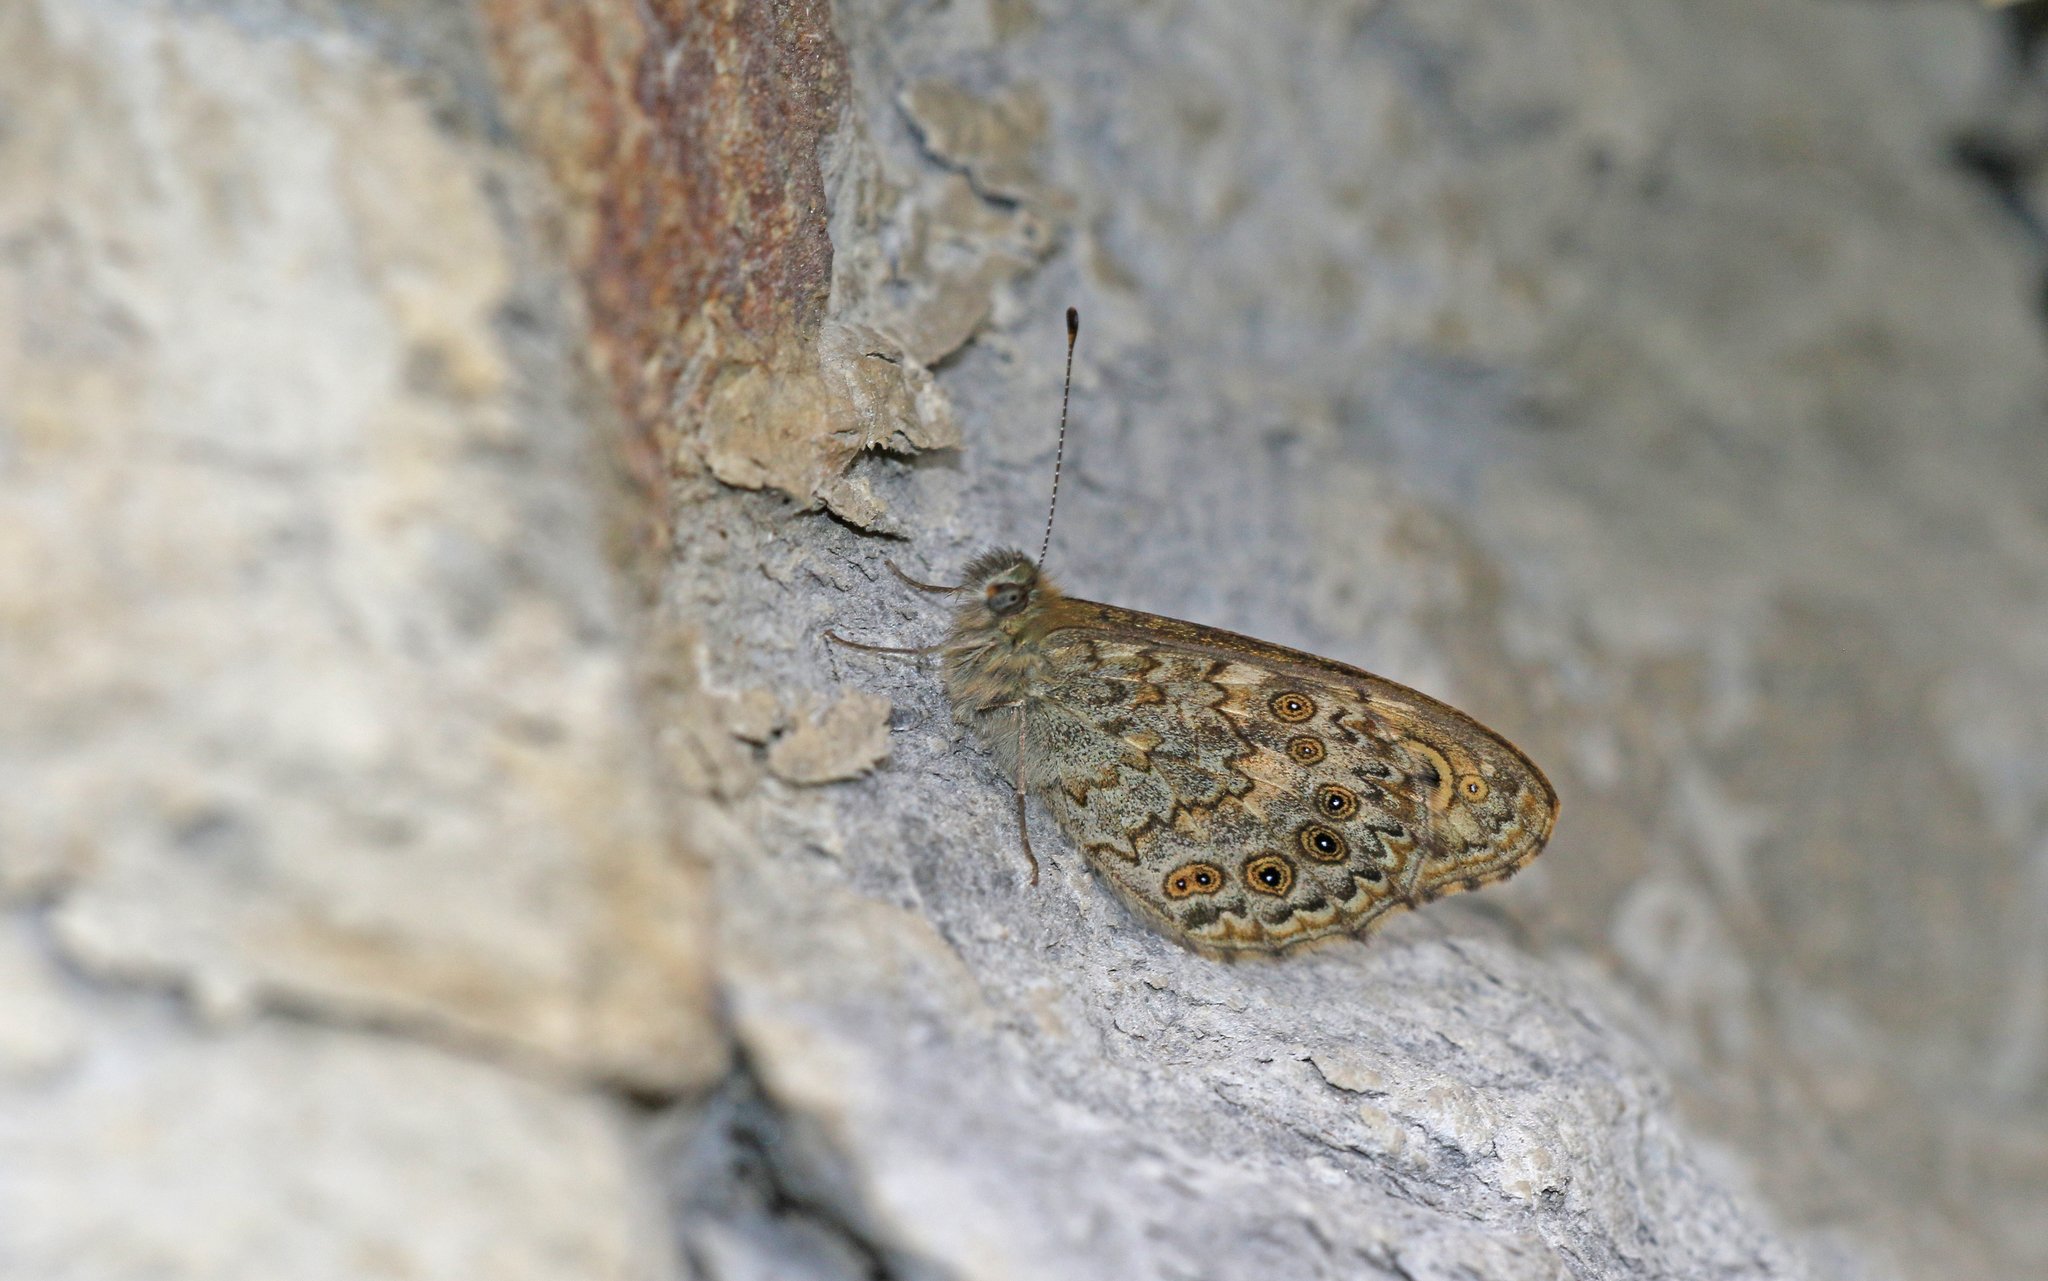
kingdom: Animalia
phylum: Arthropoda
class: Insecta
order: Lepidoptera
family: Nymphalidae
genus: Pararge
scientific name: Pararge Lasiommata megera
